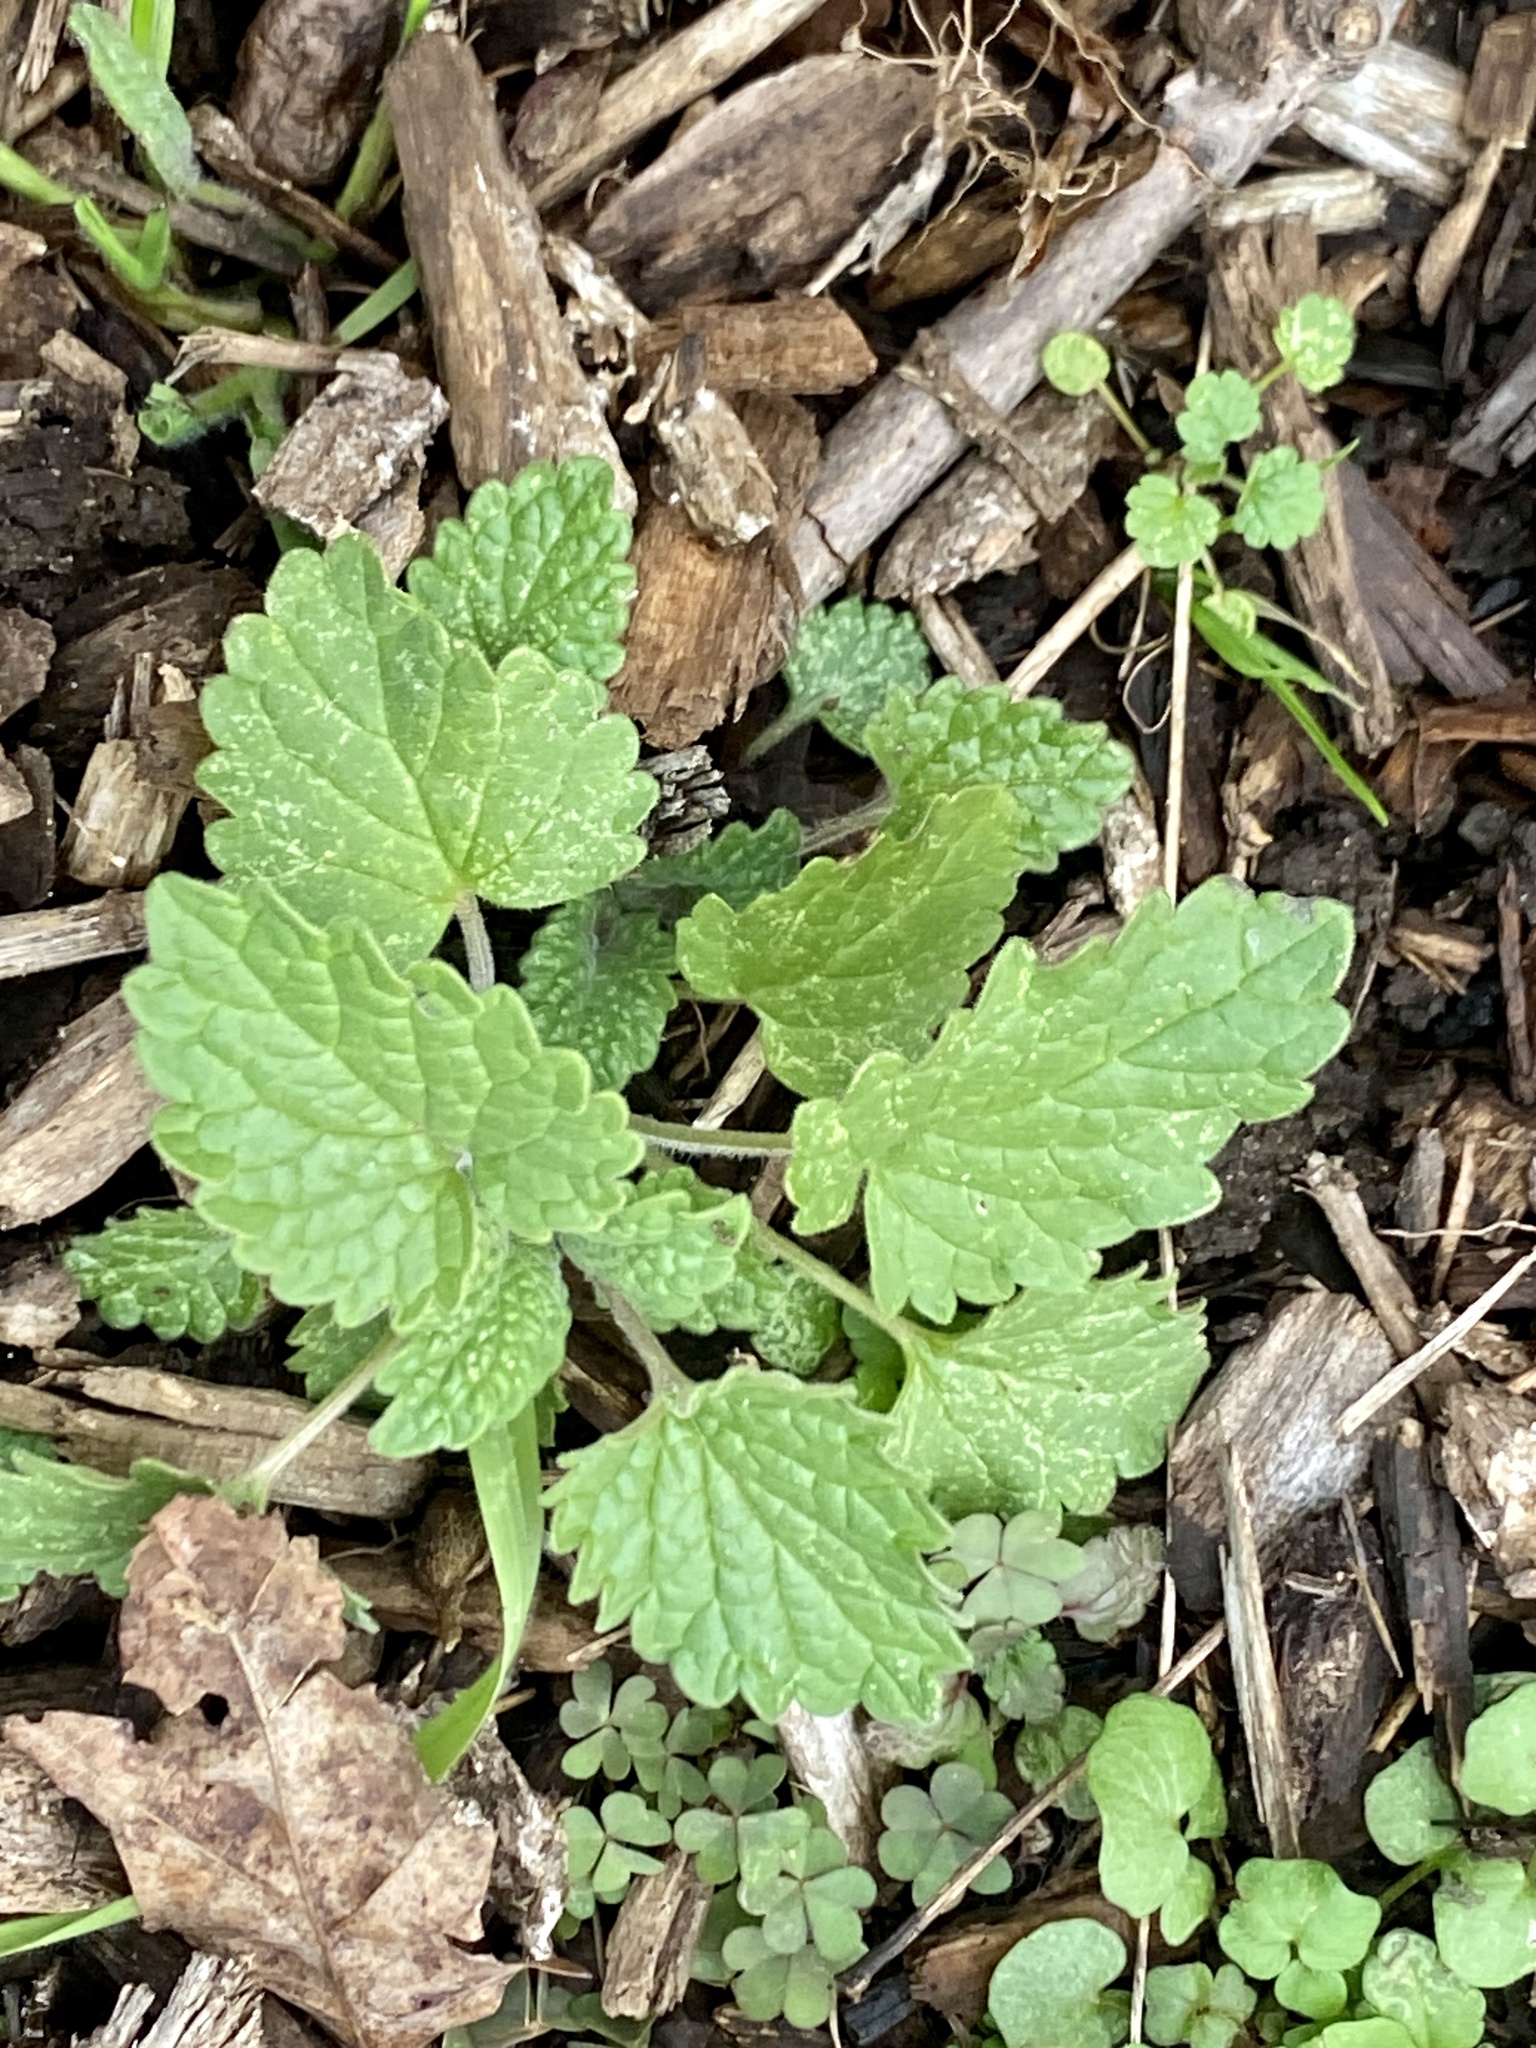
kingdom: Plantae
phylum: Tracheophyta
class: Magnoliopsida
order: Lamiales
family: Lamiaceae
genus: Leonurus
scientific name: Leonurus cardiaca
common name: Motherwort
